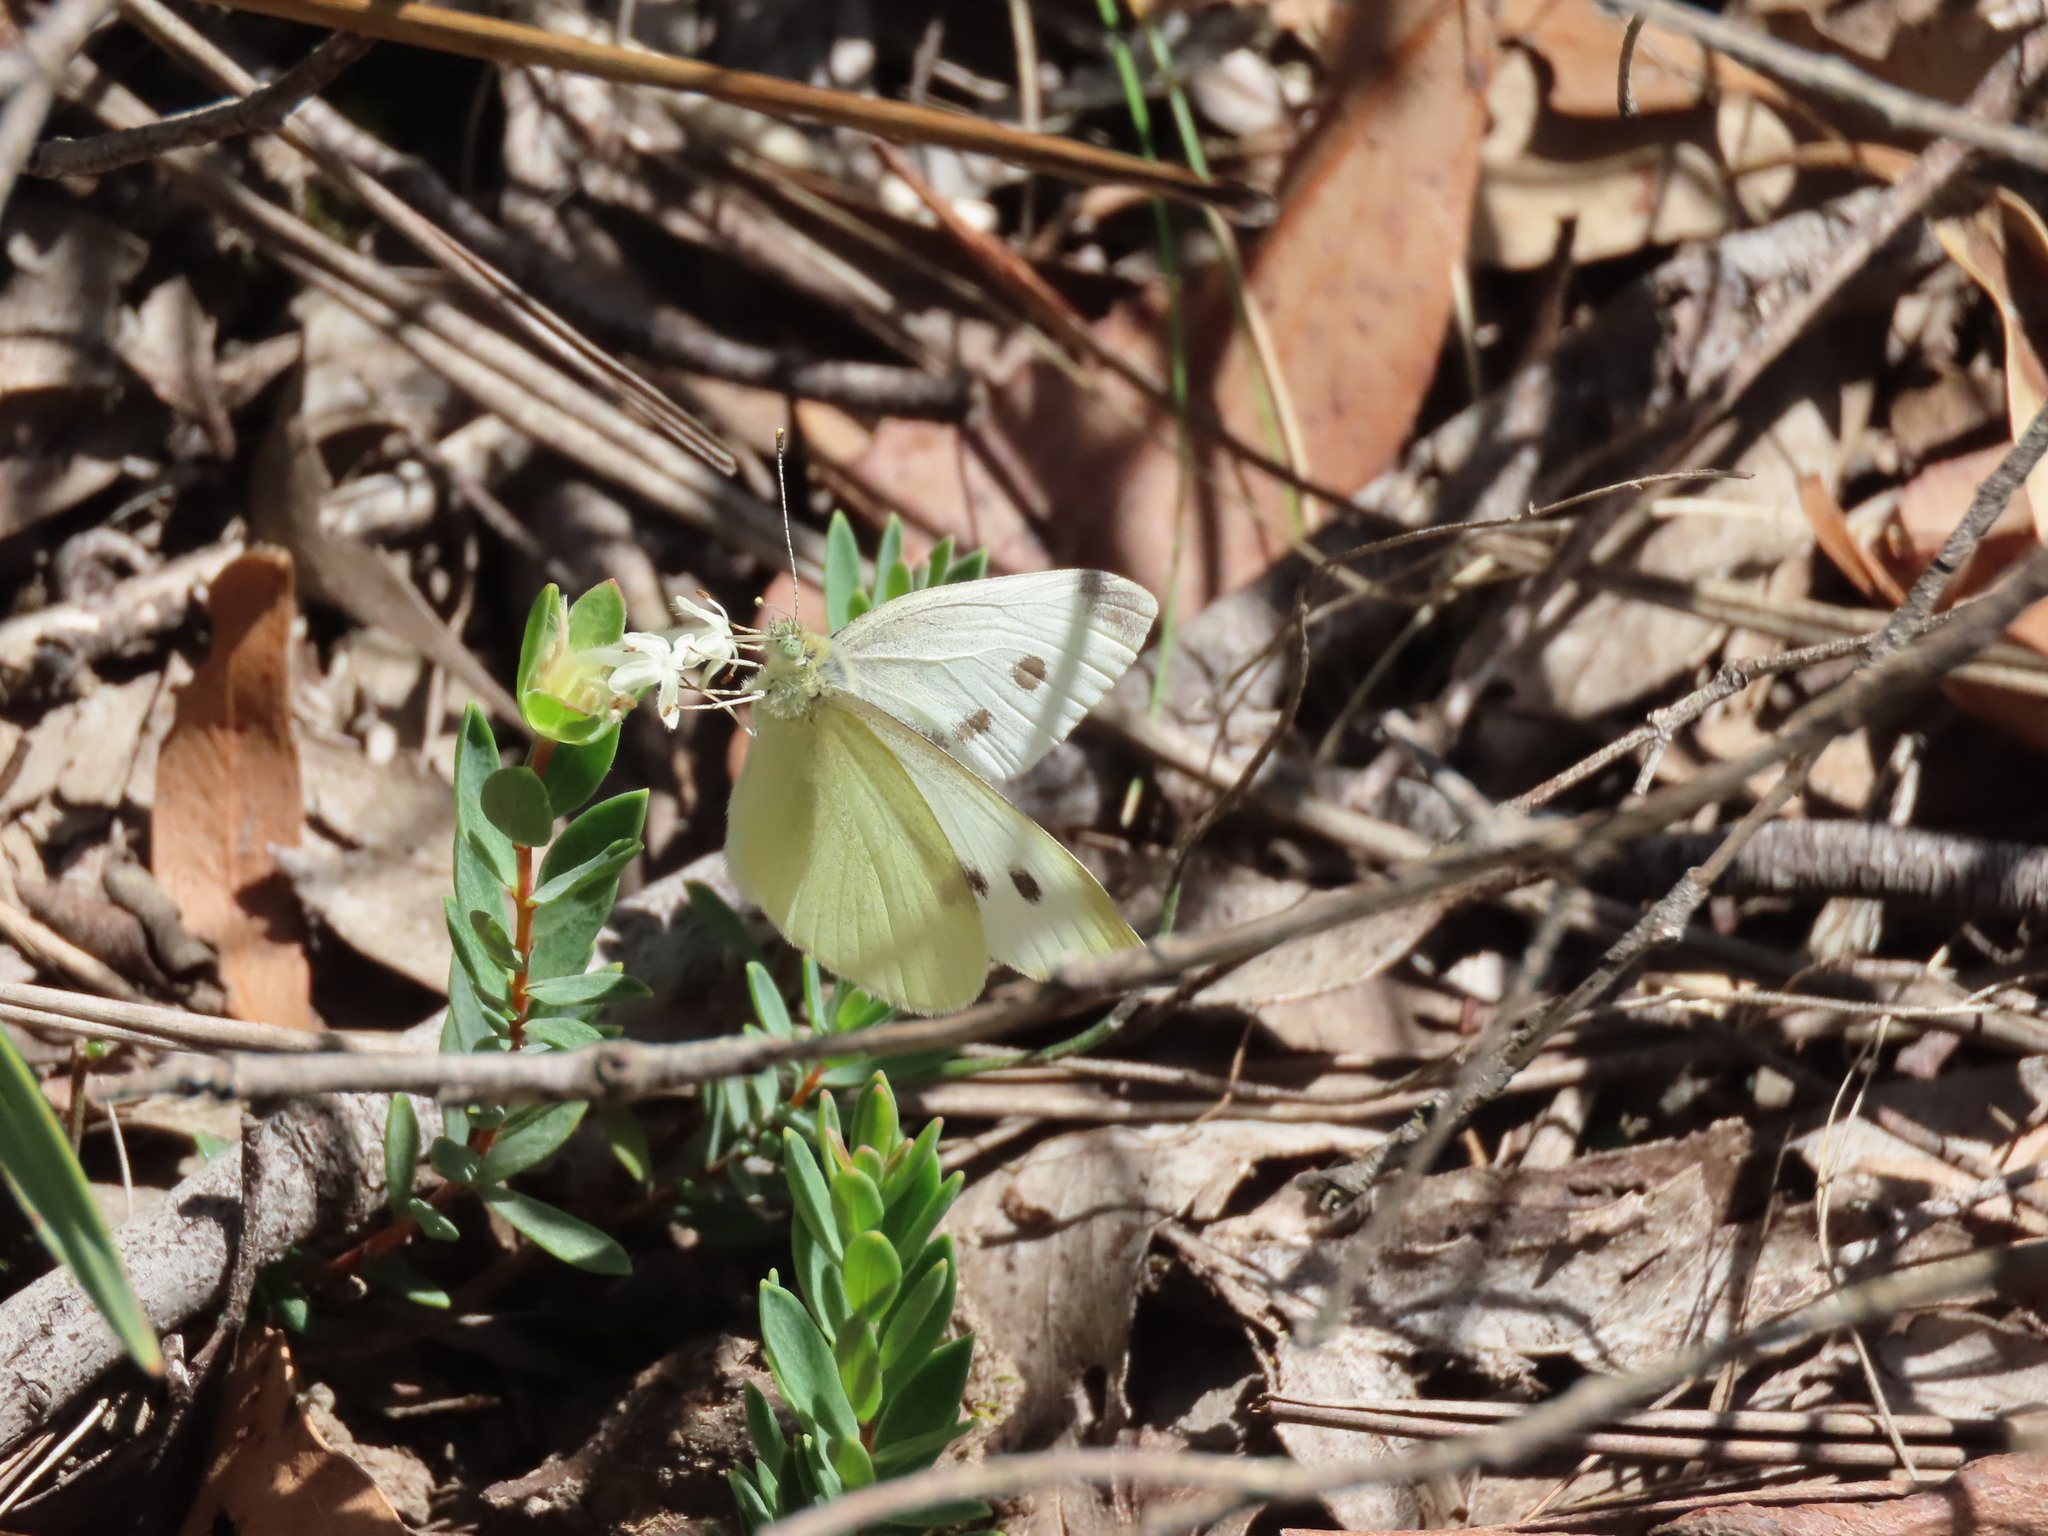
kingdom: Animalia
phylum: Arthropoda
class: Insecta
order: Lepidoptera
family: Pieridae
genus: Pieris
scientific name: Pieris rapae
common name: Small white
